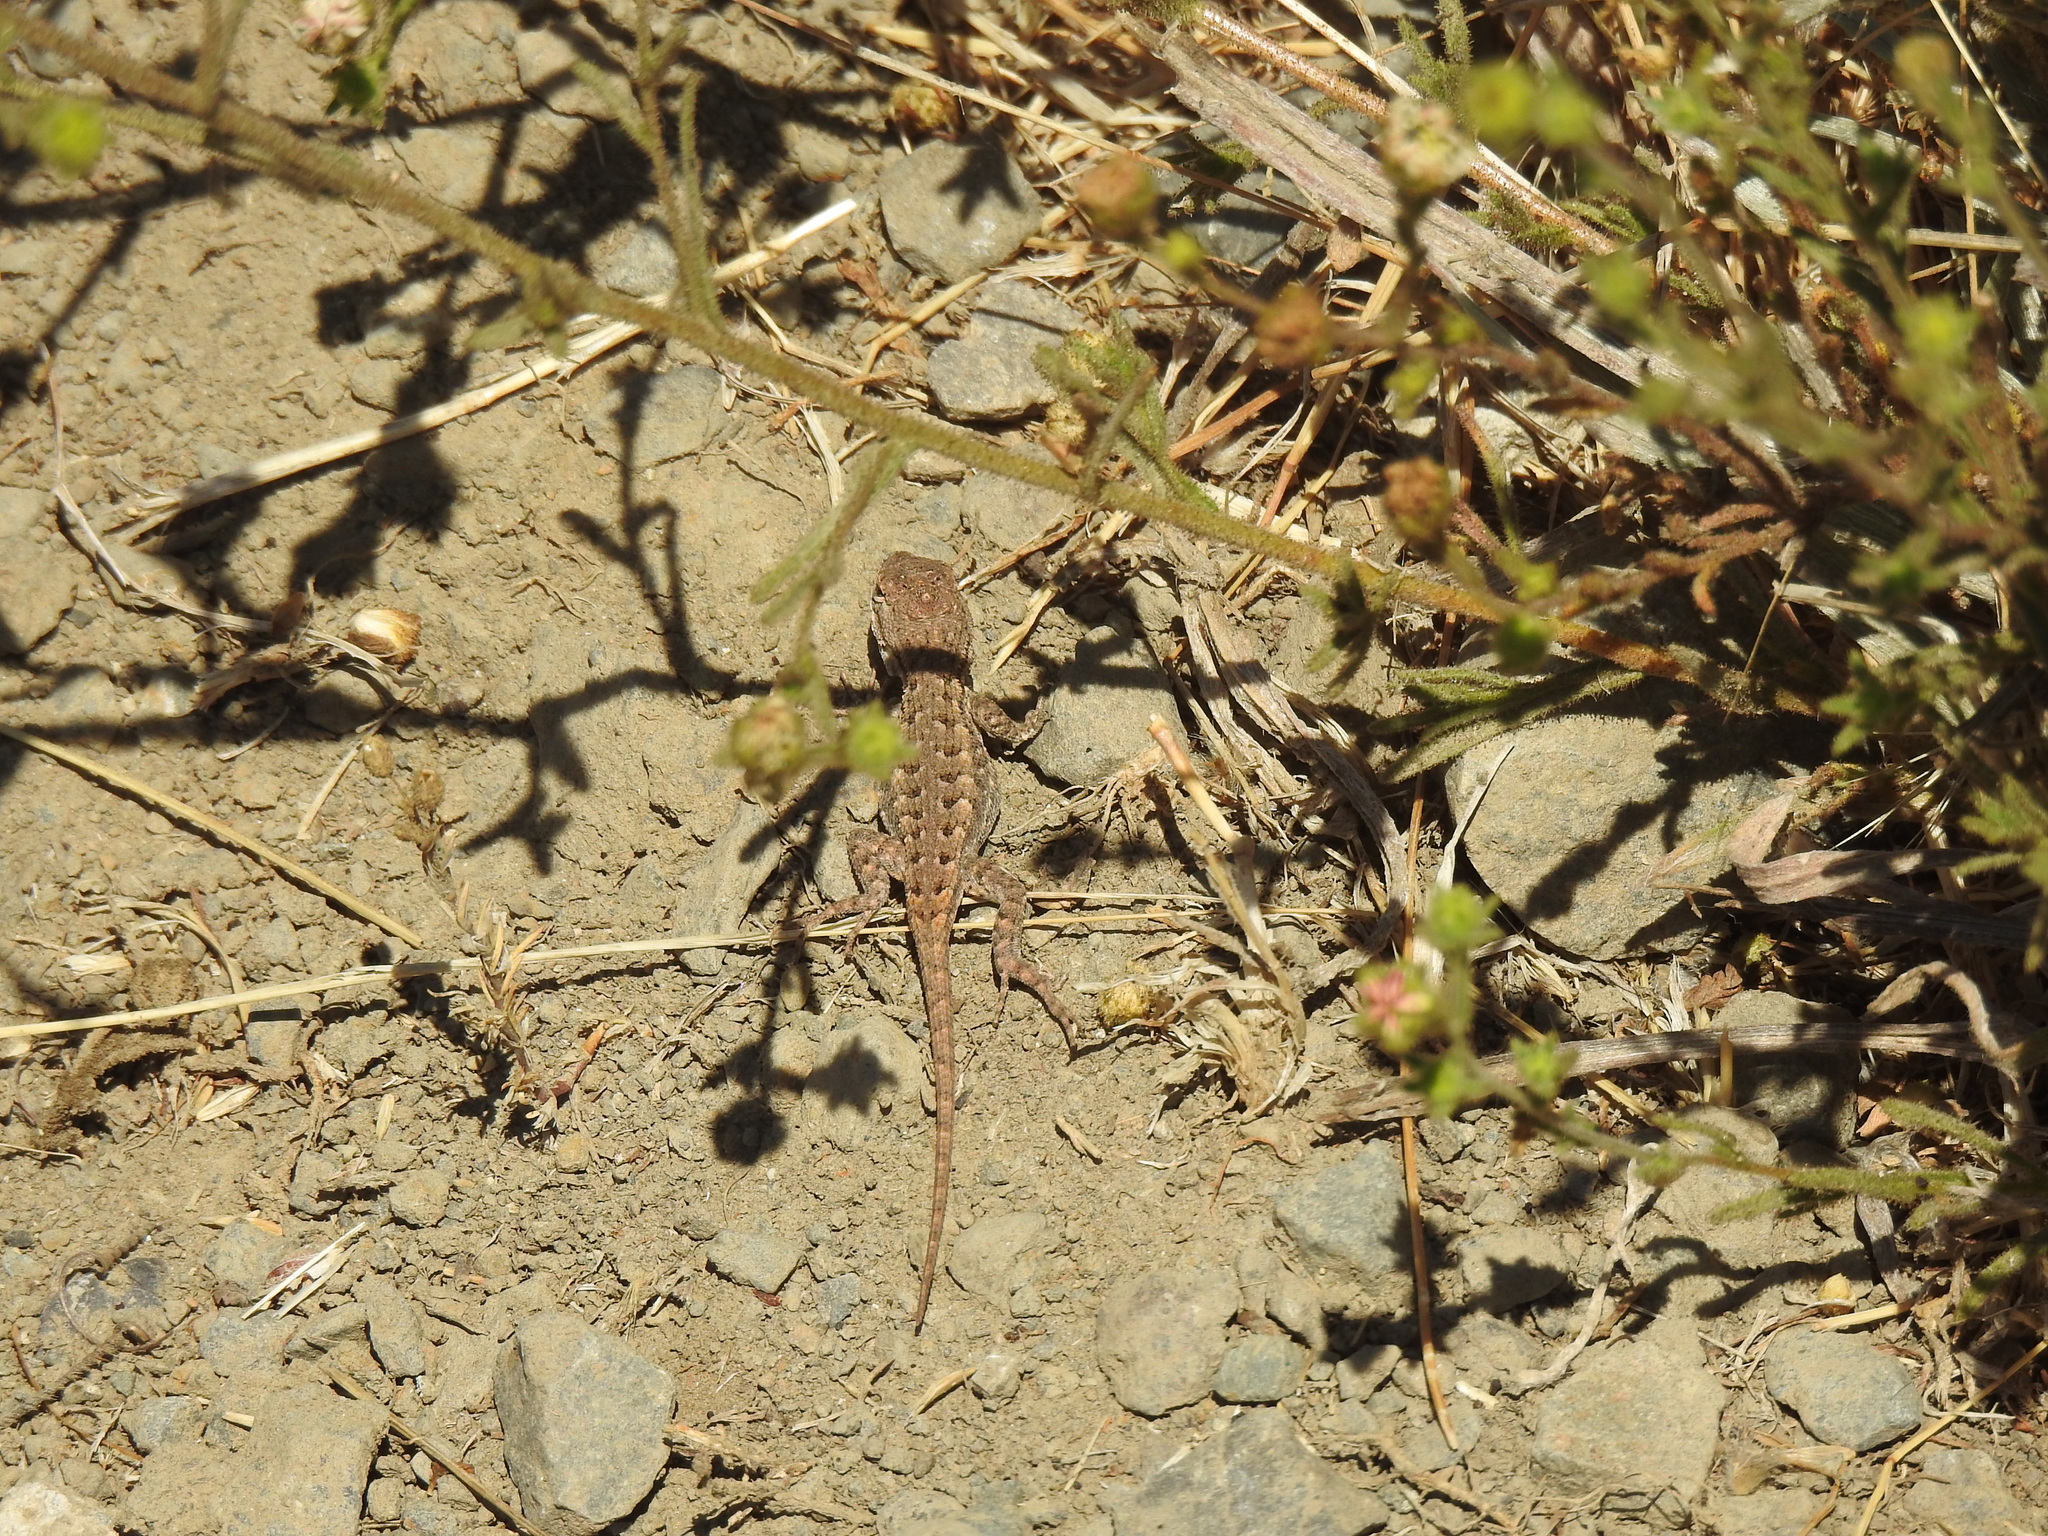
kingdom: Animalia
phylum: Chordata
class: Squamata
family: Phrynosomatidae
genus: Sceloporus
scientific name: Sceloporus occidentalis
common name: Western fence lizard
